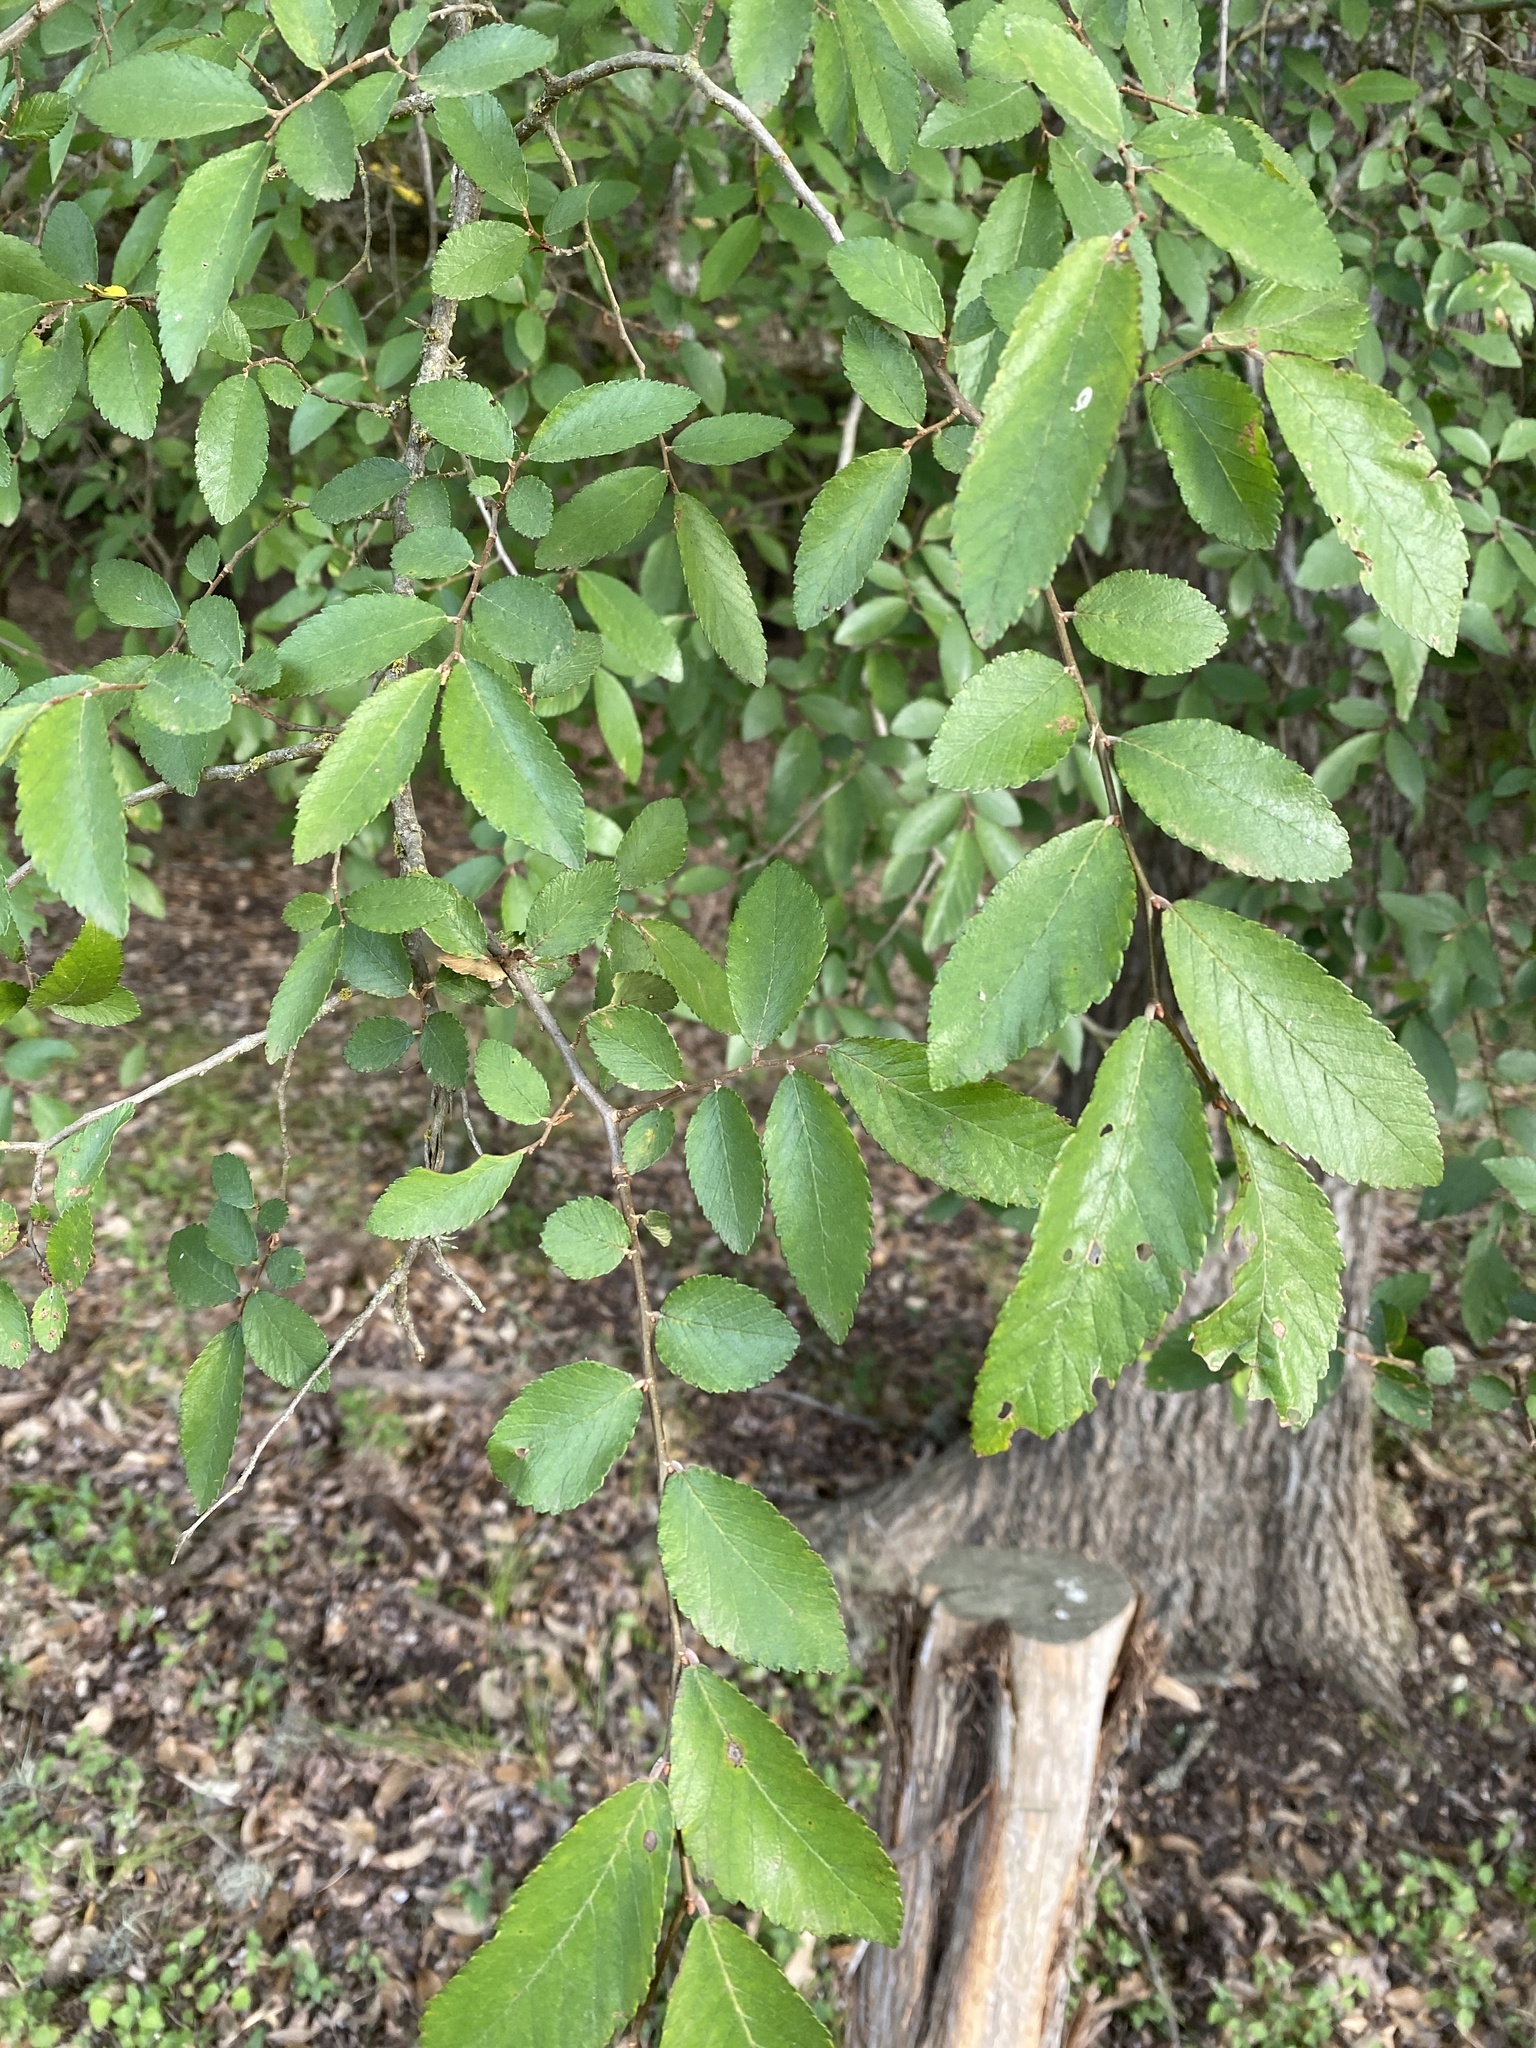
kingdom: Plantae
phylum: Tracheophyta
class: Magnoliopsida
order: Rosales
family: Ulmaceae
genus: Ulmus
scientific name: Ulmus crassifolia
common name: Basket elm
